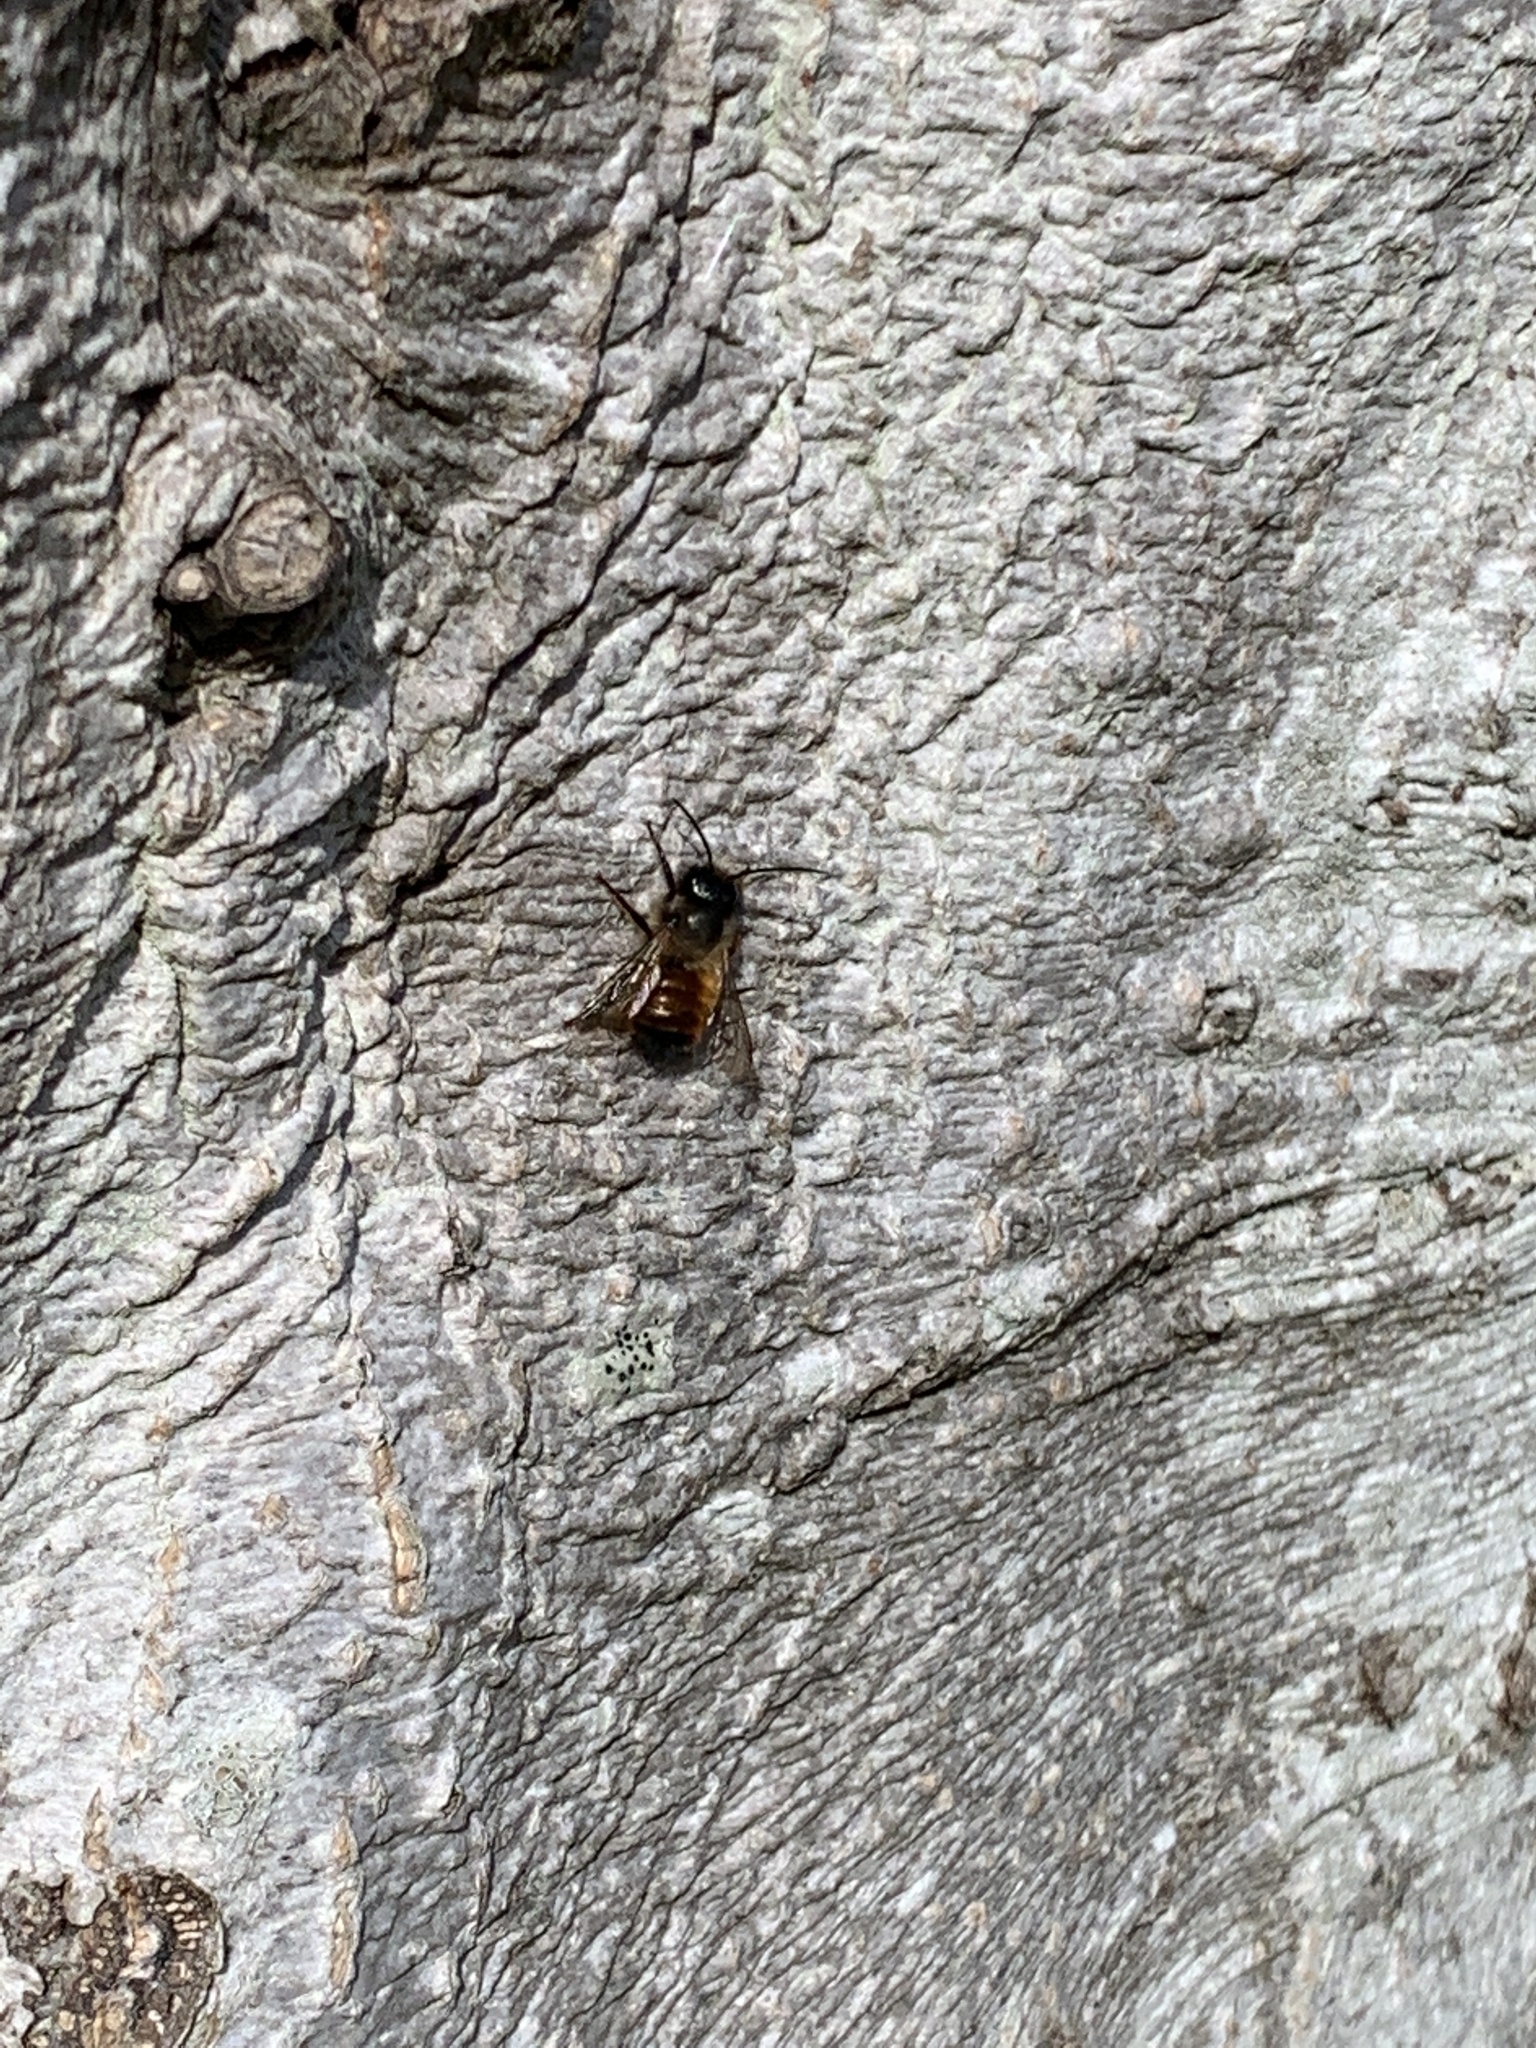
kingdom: Animalia
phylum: Arthropoda
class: Insecta
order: Hymenoptera
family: Megachilidae
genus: Osmia
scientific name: Osmia bicornis
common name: Red mason bee
